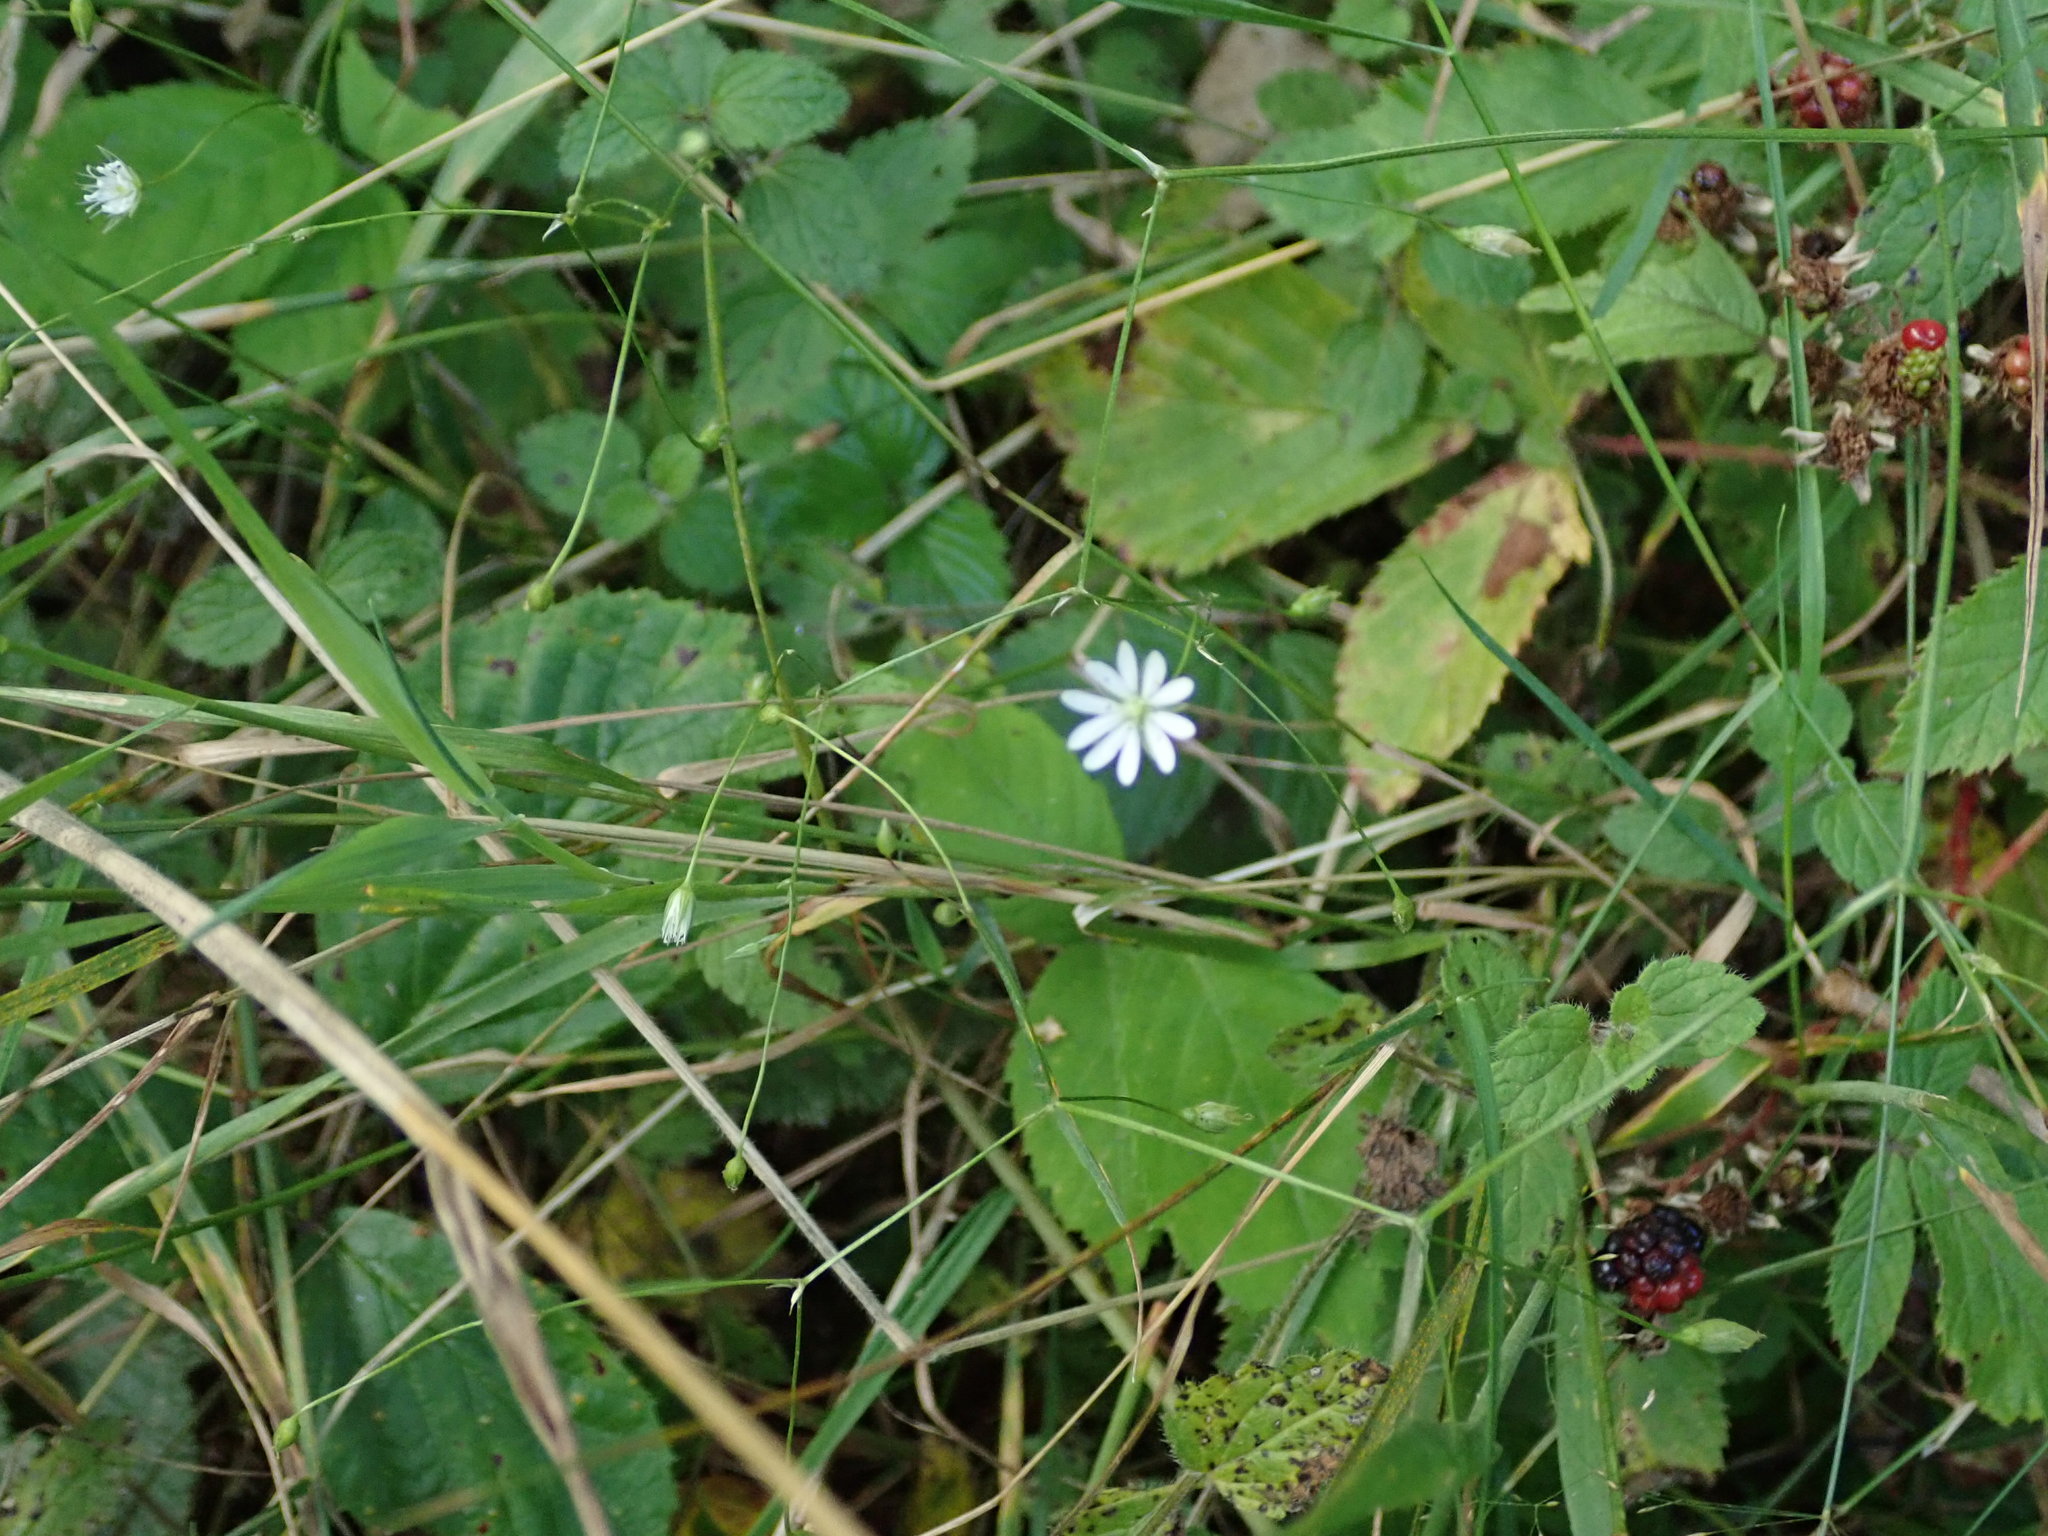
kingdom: Plantae
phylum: Tracheophyta
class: Magnoliopsida
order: Caryophyllales
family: Caryophyllaceae
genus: Stellaria
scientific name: Stellaria graminea
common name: Grass-like starwort
